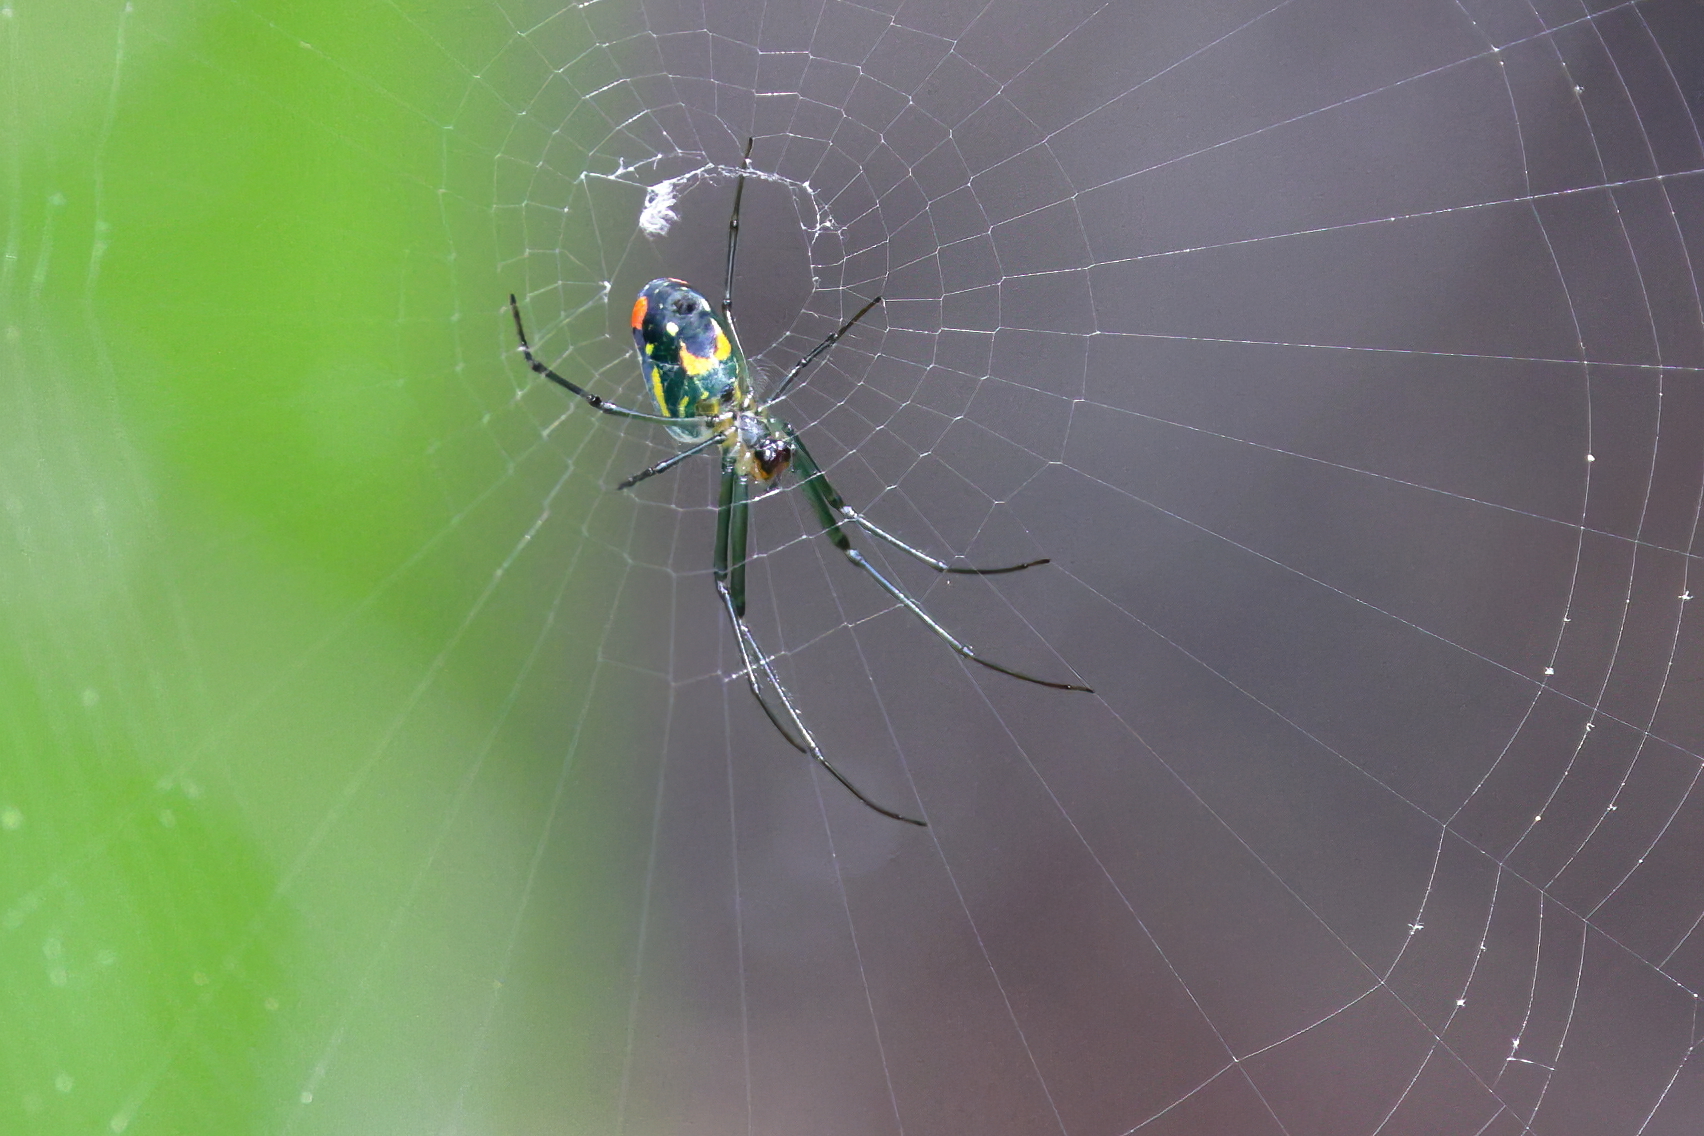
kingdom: Animalia
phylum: Arthropoda
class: Arachnida
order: Araneae
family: Tetragnathidae
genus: Leucauge
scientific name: Leucauge argyrobapta
